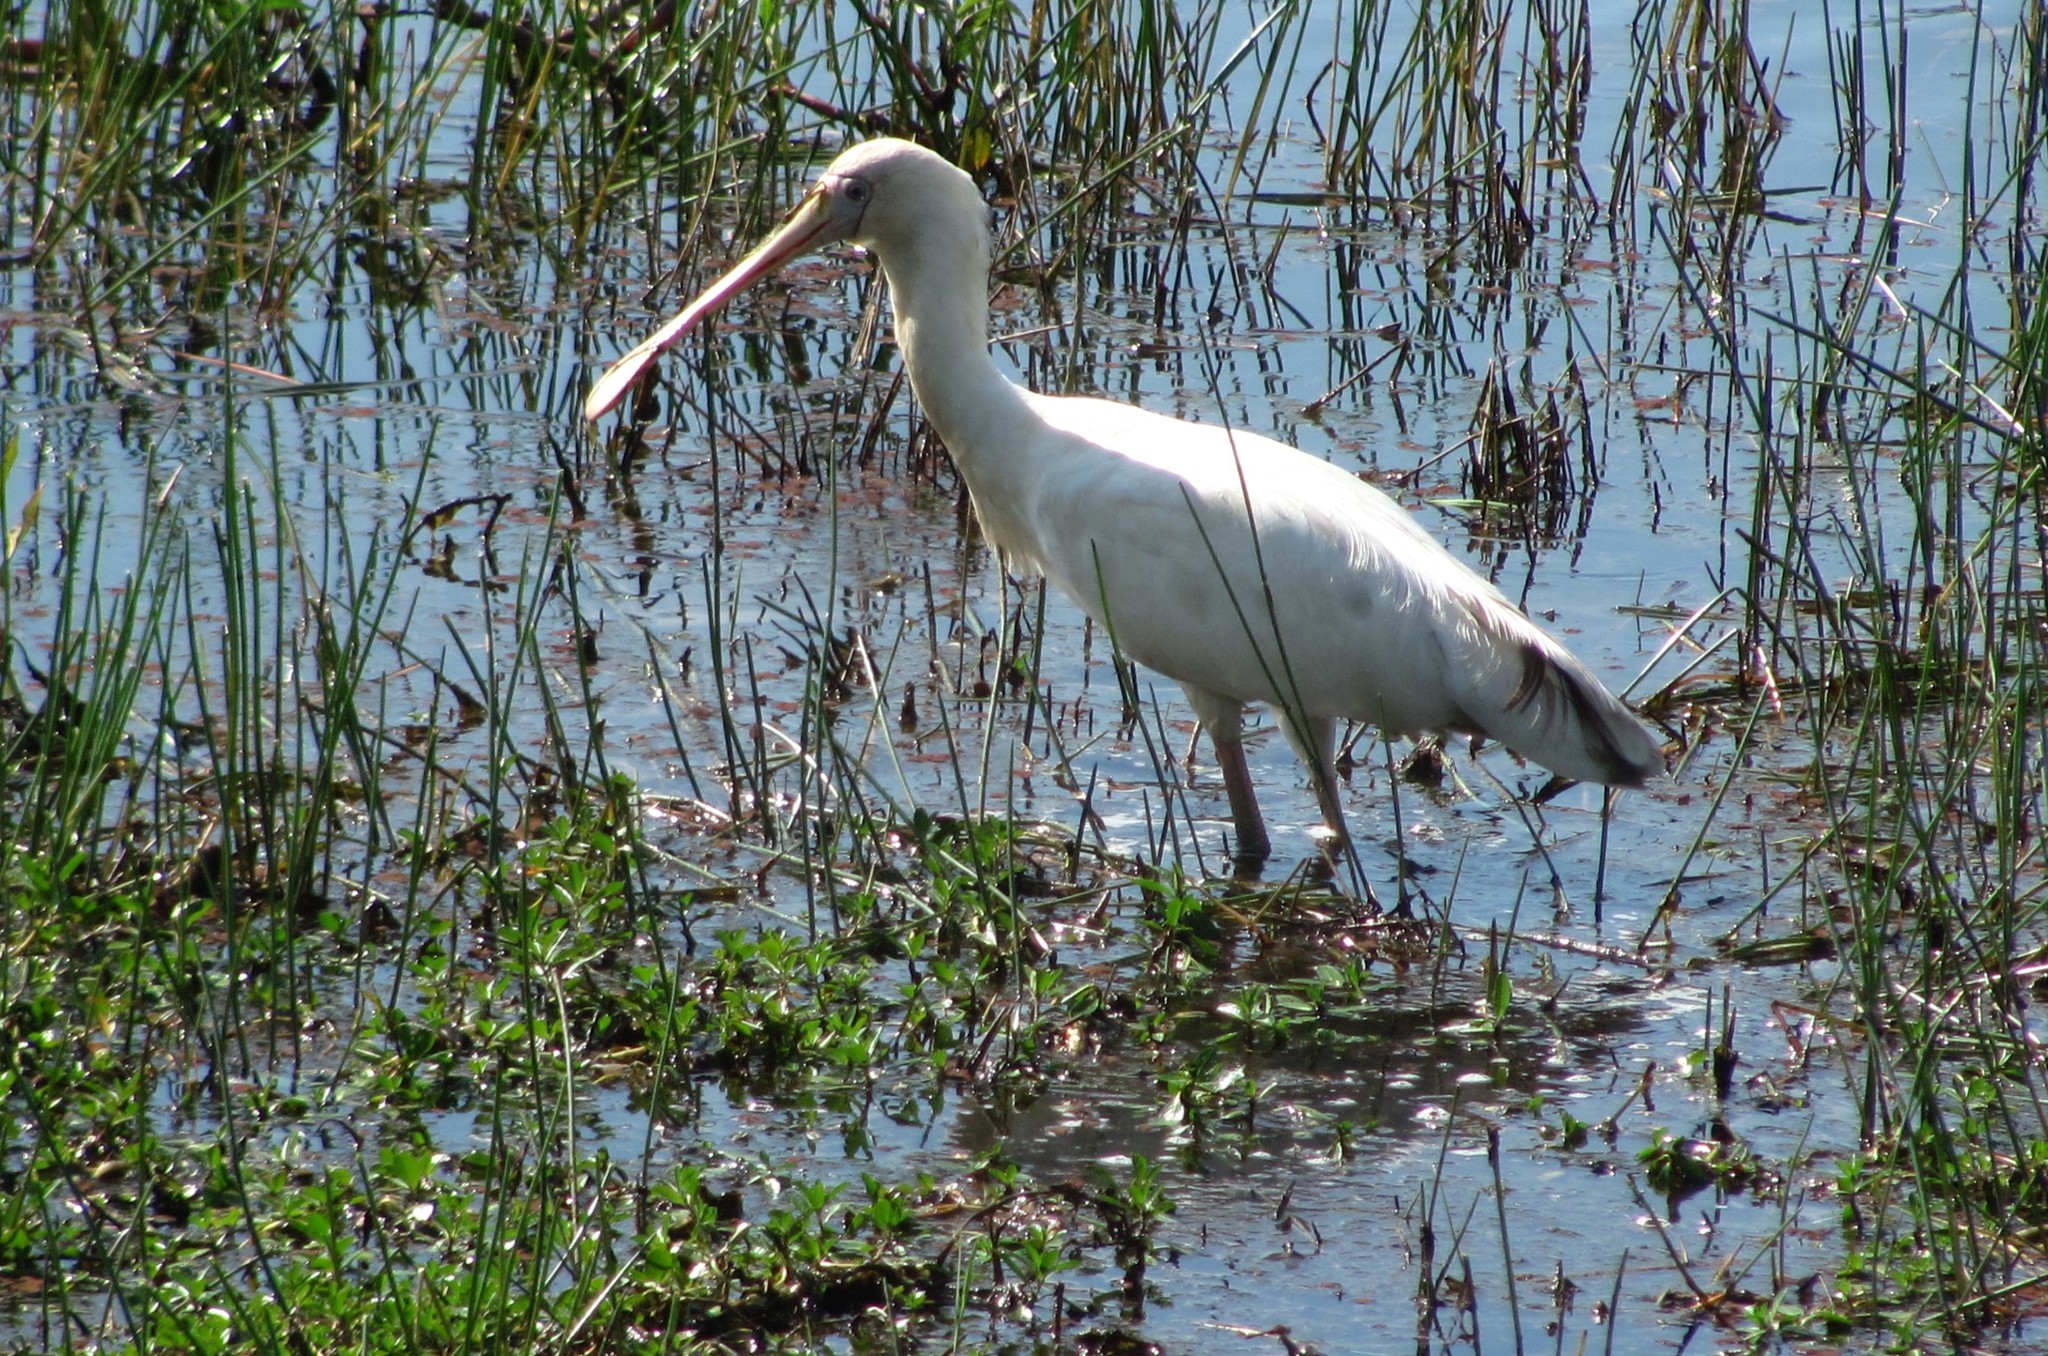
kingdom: Animalia
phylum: Chordata
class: Aves
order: Pelecaniformes
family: Threskiornithidae
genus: Platalea
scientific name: Platalea flavipes
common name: Yellow-billed spoonbill
